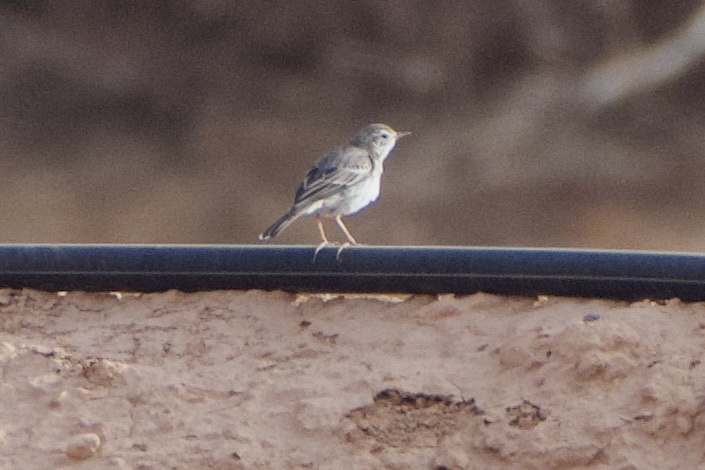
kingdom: Animalia
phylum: Chordata
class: Aves
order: Passeriformes
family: Motacillidae
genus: Anthus
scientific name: Anthus berthelotii
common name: Berthelot's pipit
